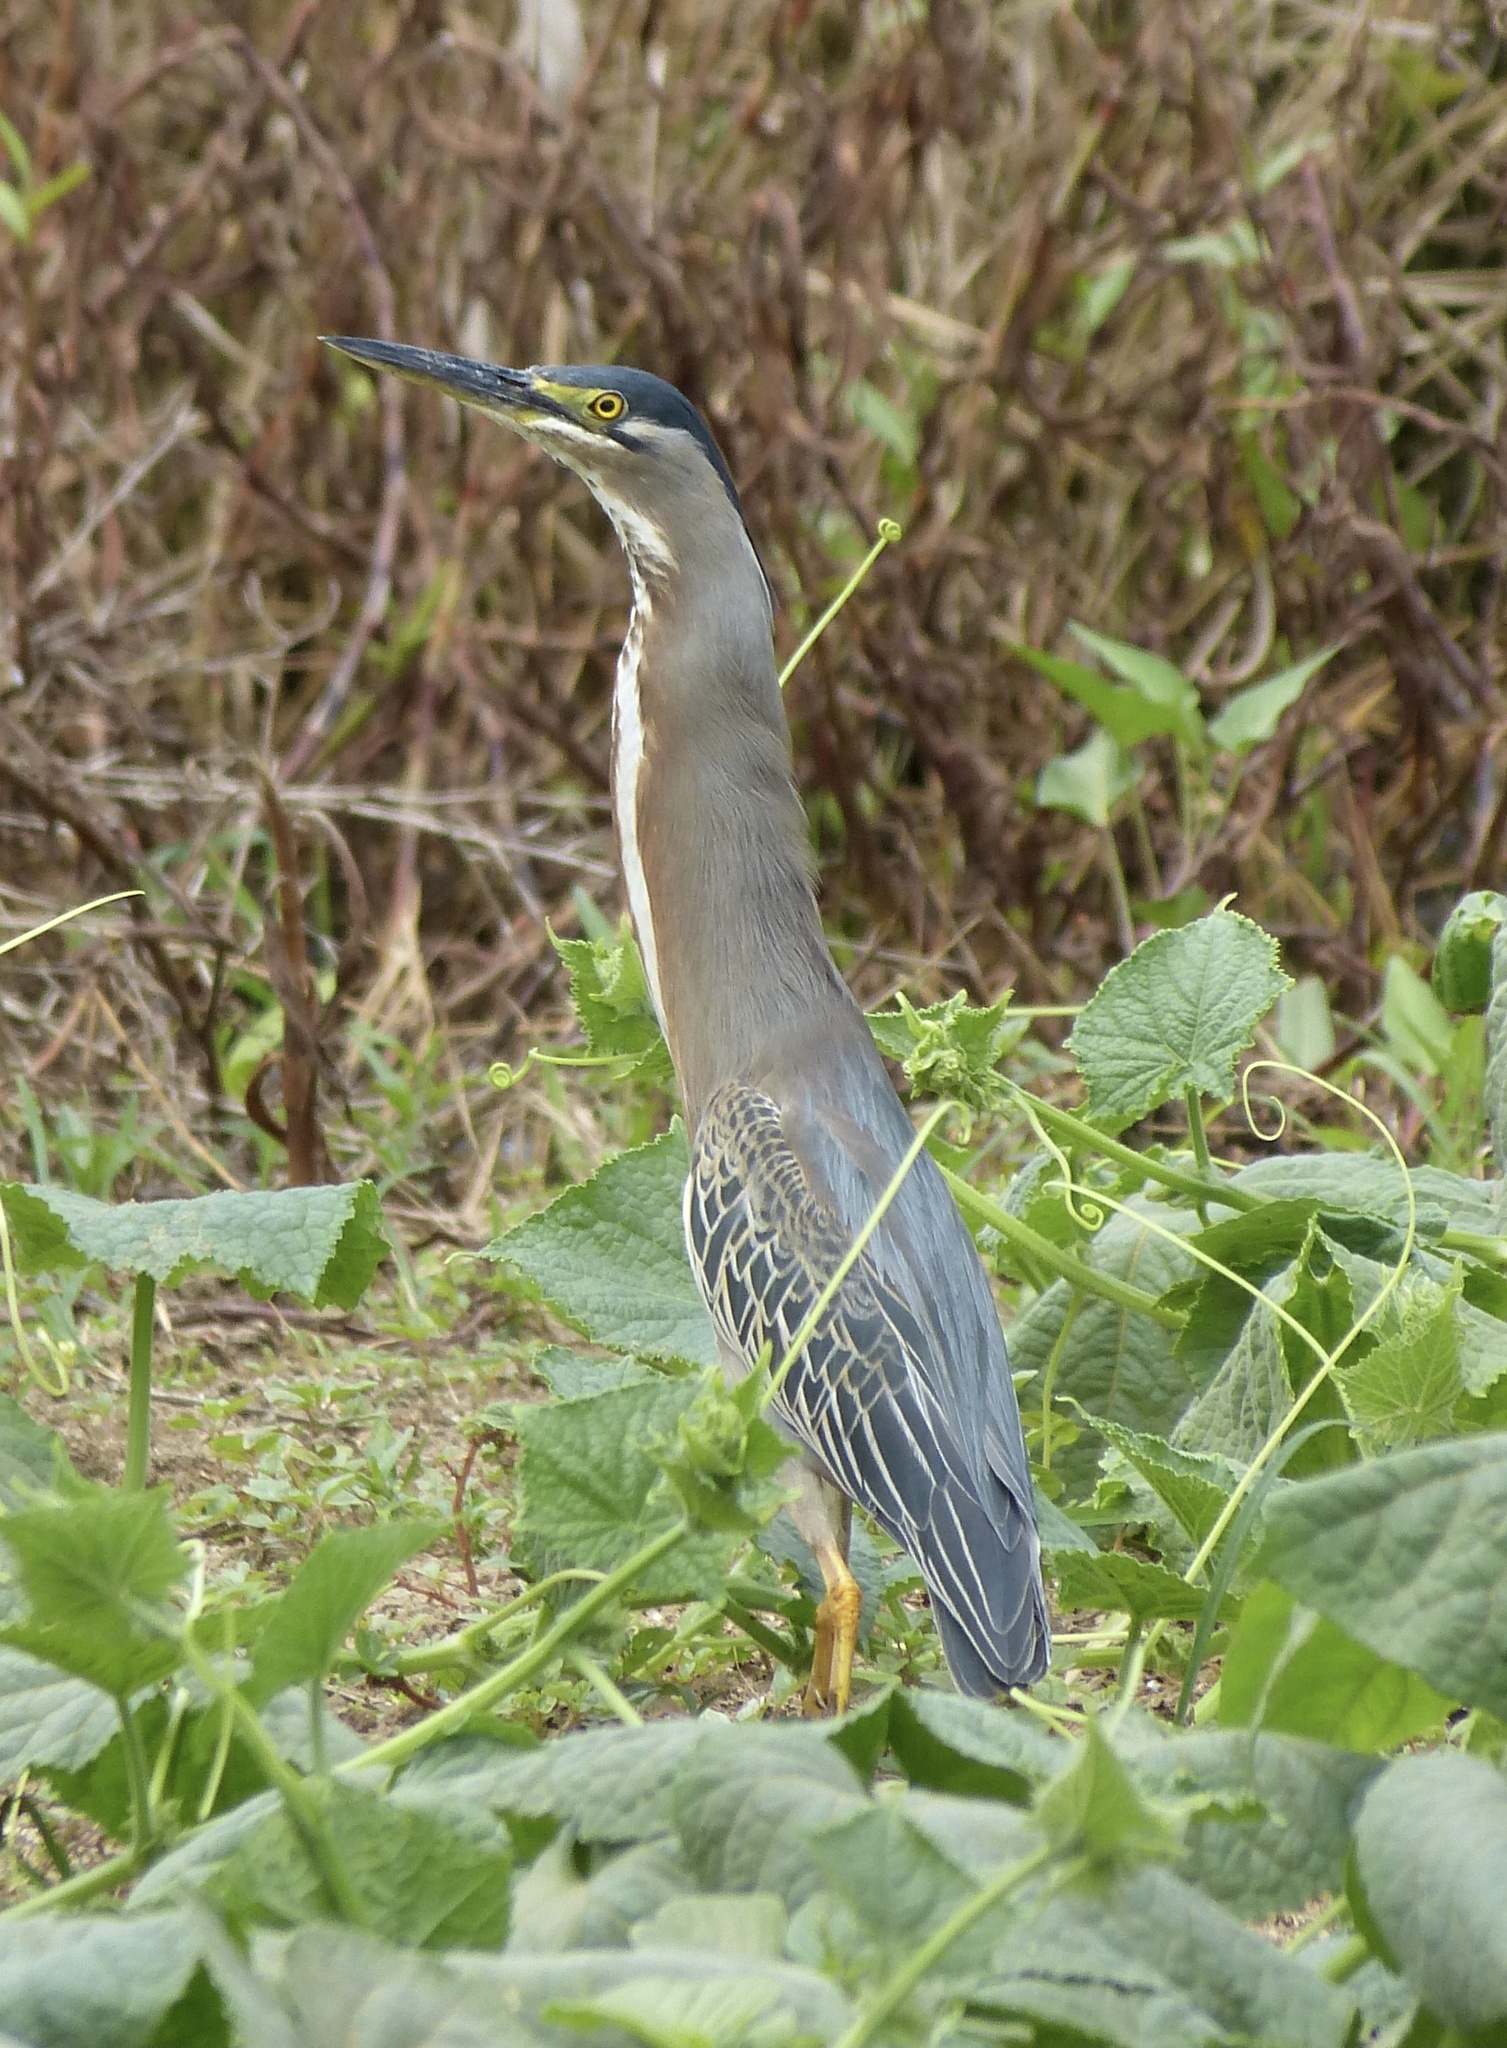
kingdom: Animalia
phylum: Chordata
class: Aves
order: Pelecaniformes
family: Ardeidae
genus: Butorides
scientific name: Butorides striata
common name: Striated heron
